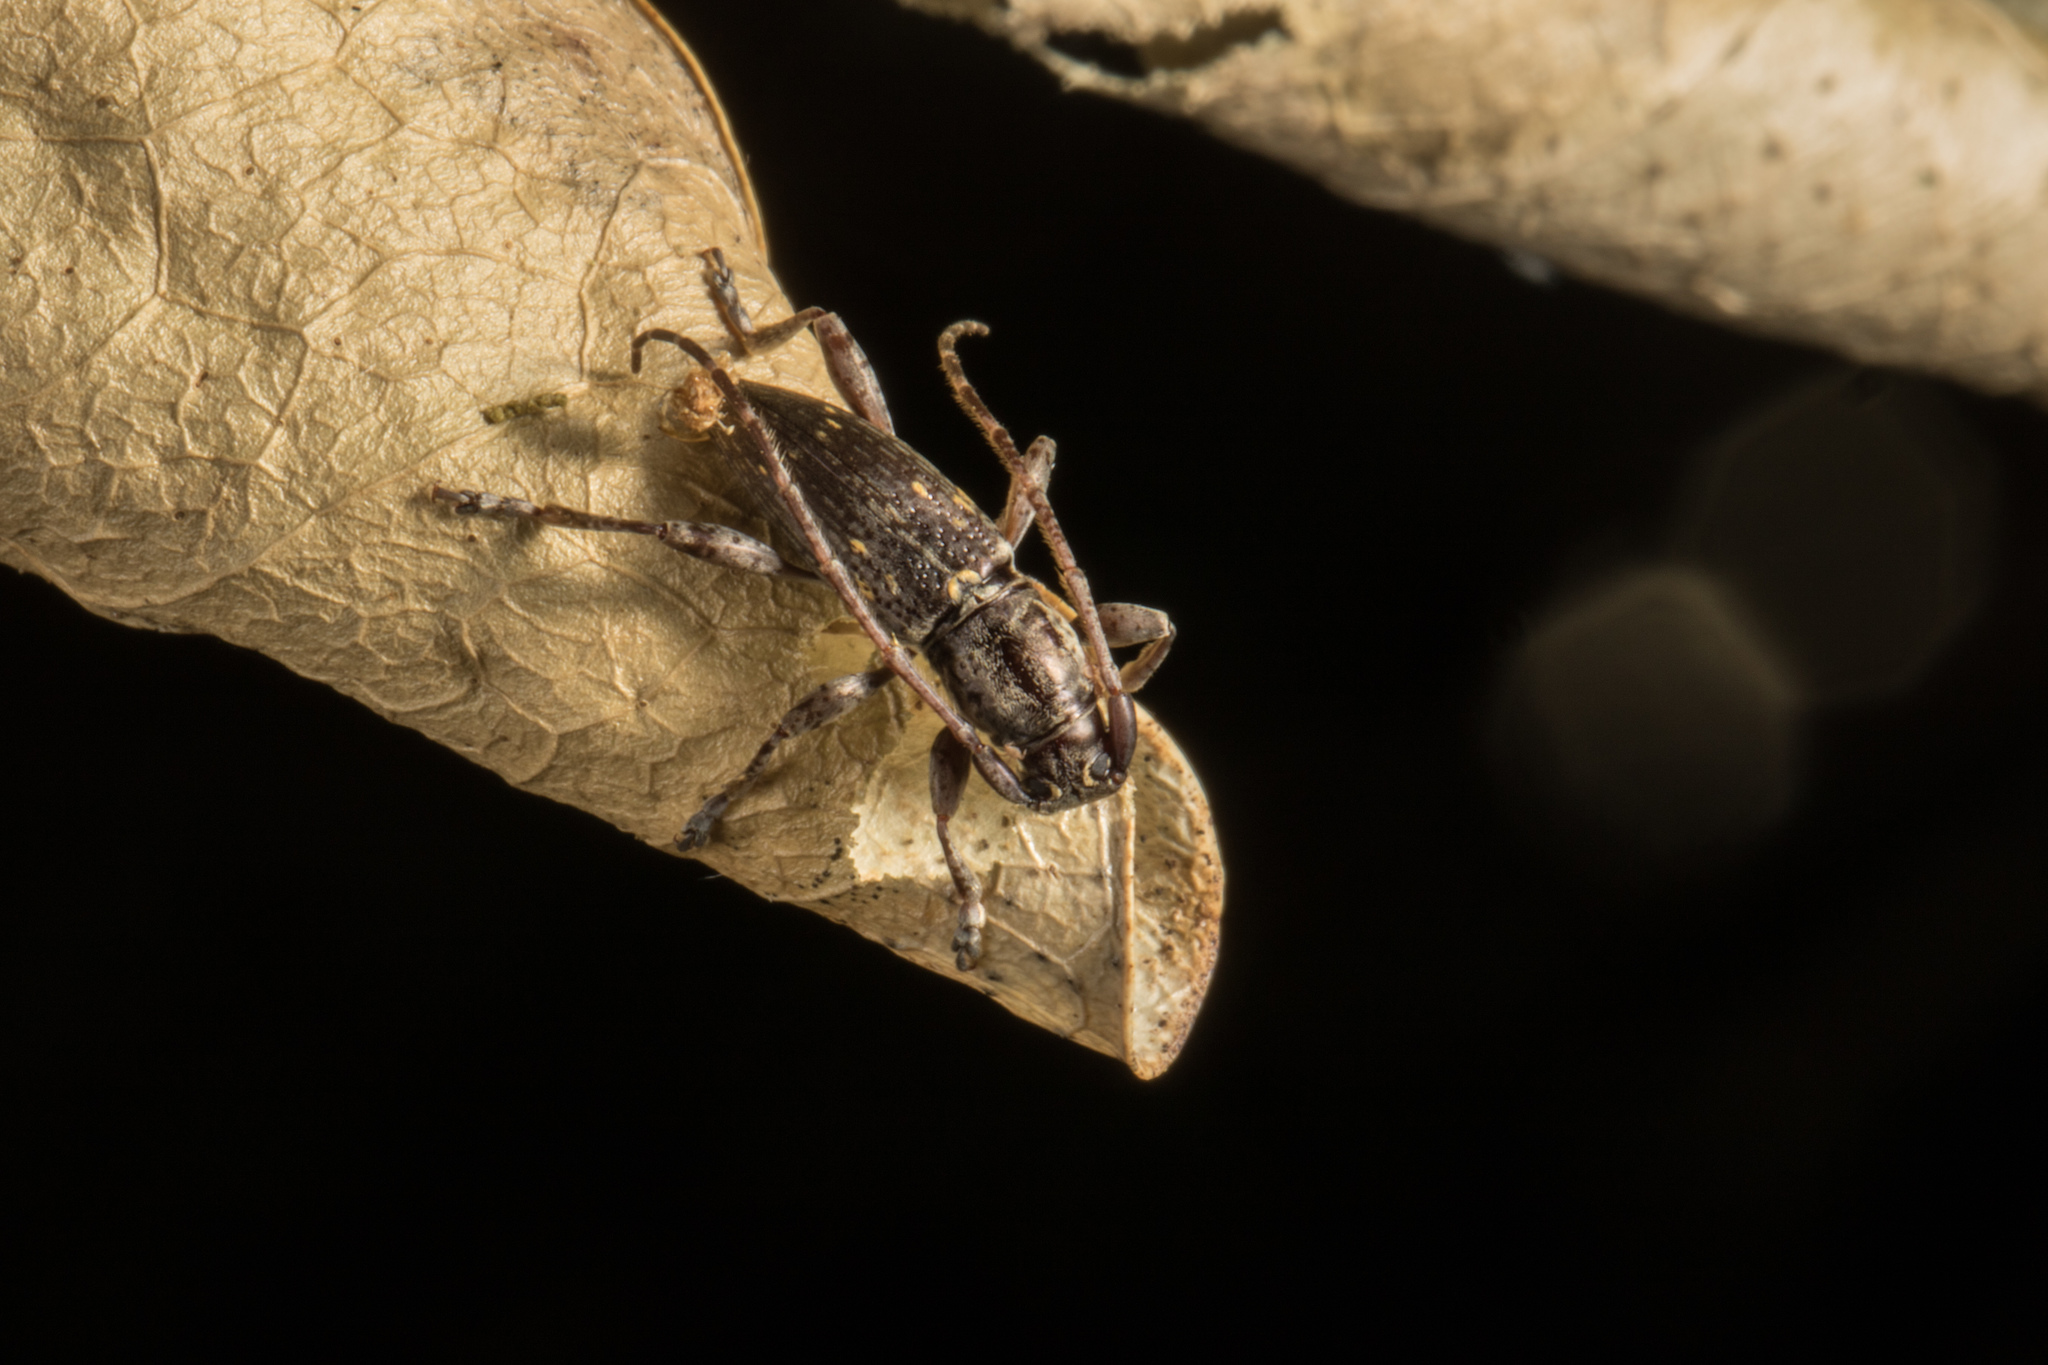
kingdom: Animalia
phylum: Arthropoda
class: Insecta
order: Coleoptera
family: Cerambycidae
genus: Xylotoles
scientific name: Xylotoles griseus
